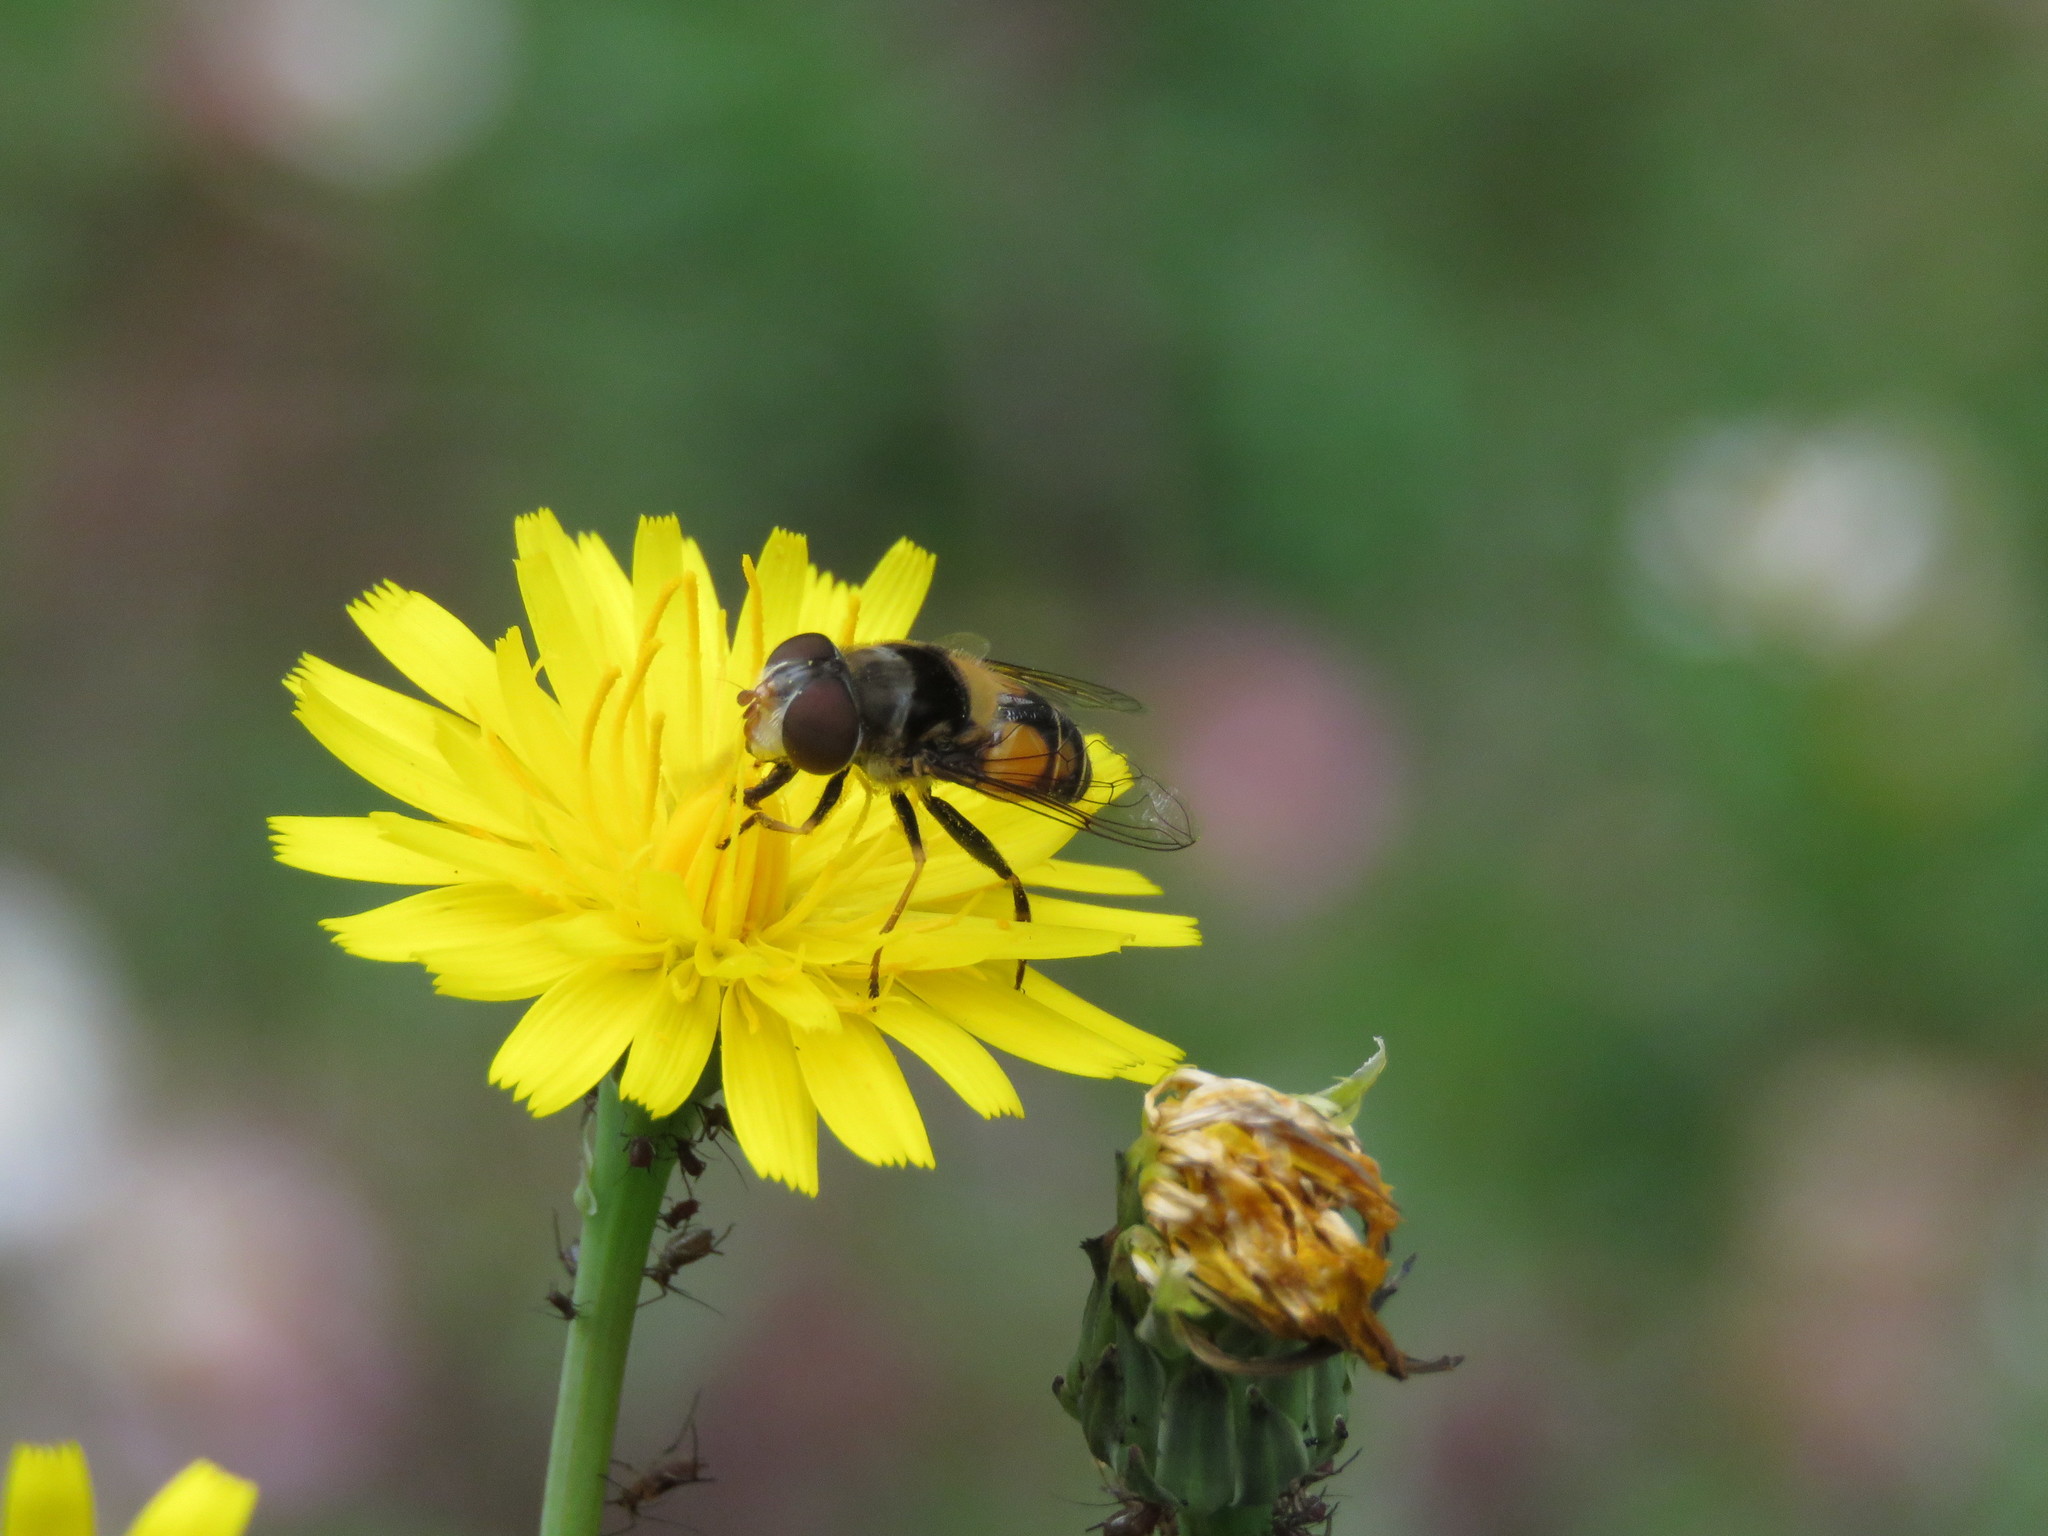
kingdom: Plantae
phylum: Tracheophyta
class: Magnoliopsida
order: Asterales
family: Asteraceae
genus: Hypochaeris
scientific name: Hypochaeris radicata
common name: Flatweed
